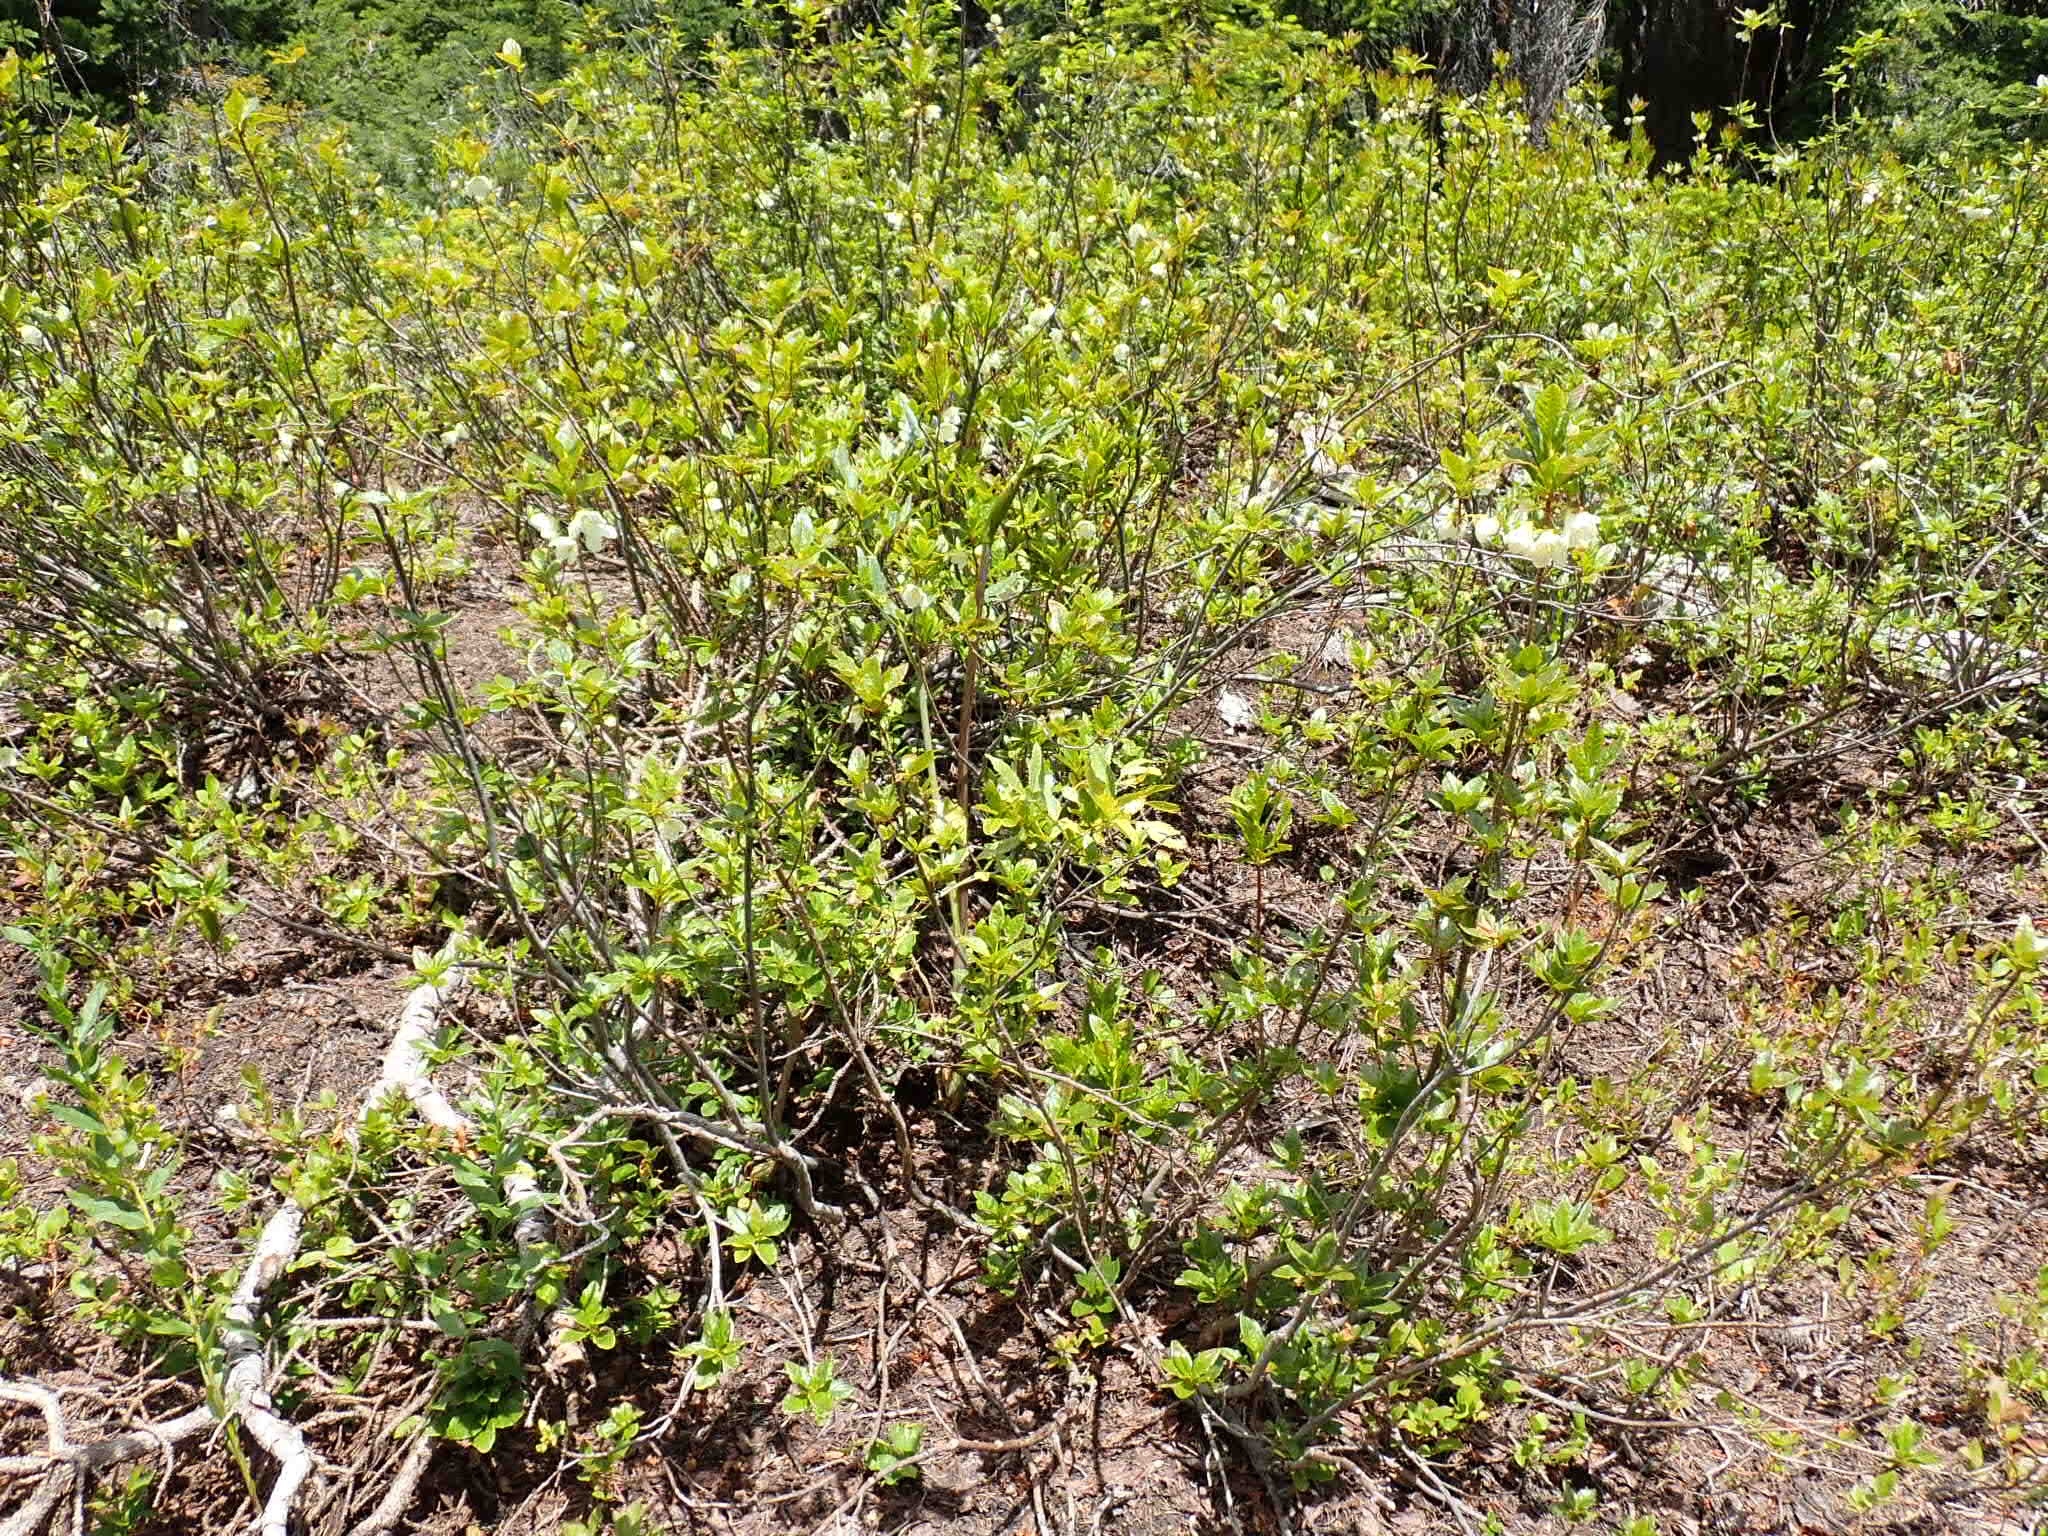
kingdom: Plantae
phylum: Tracheophyta
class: Magnoliopsida
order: Ericales
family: Ericaceae
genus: Rhododendron
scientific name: Rhododendron albiflorum
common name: White rhododendron
